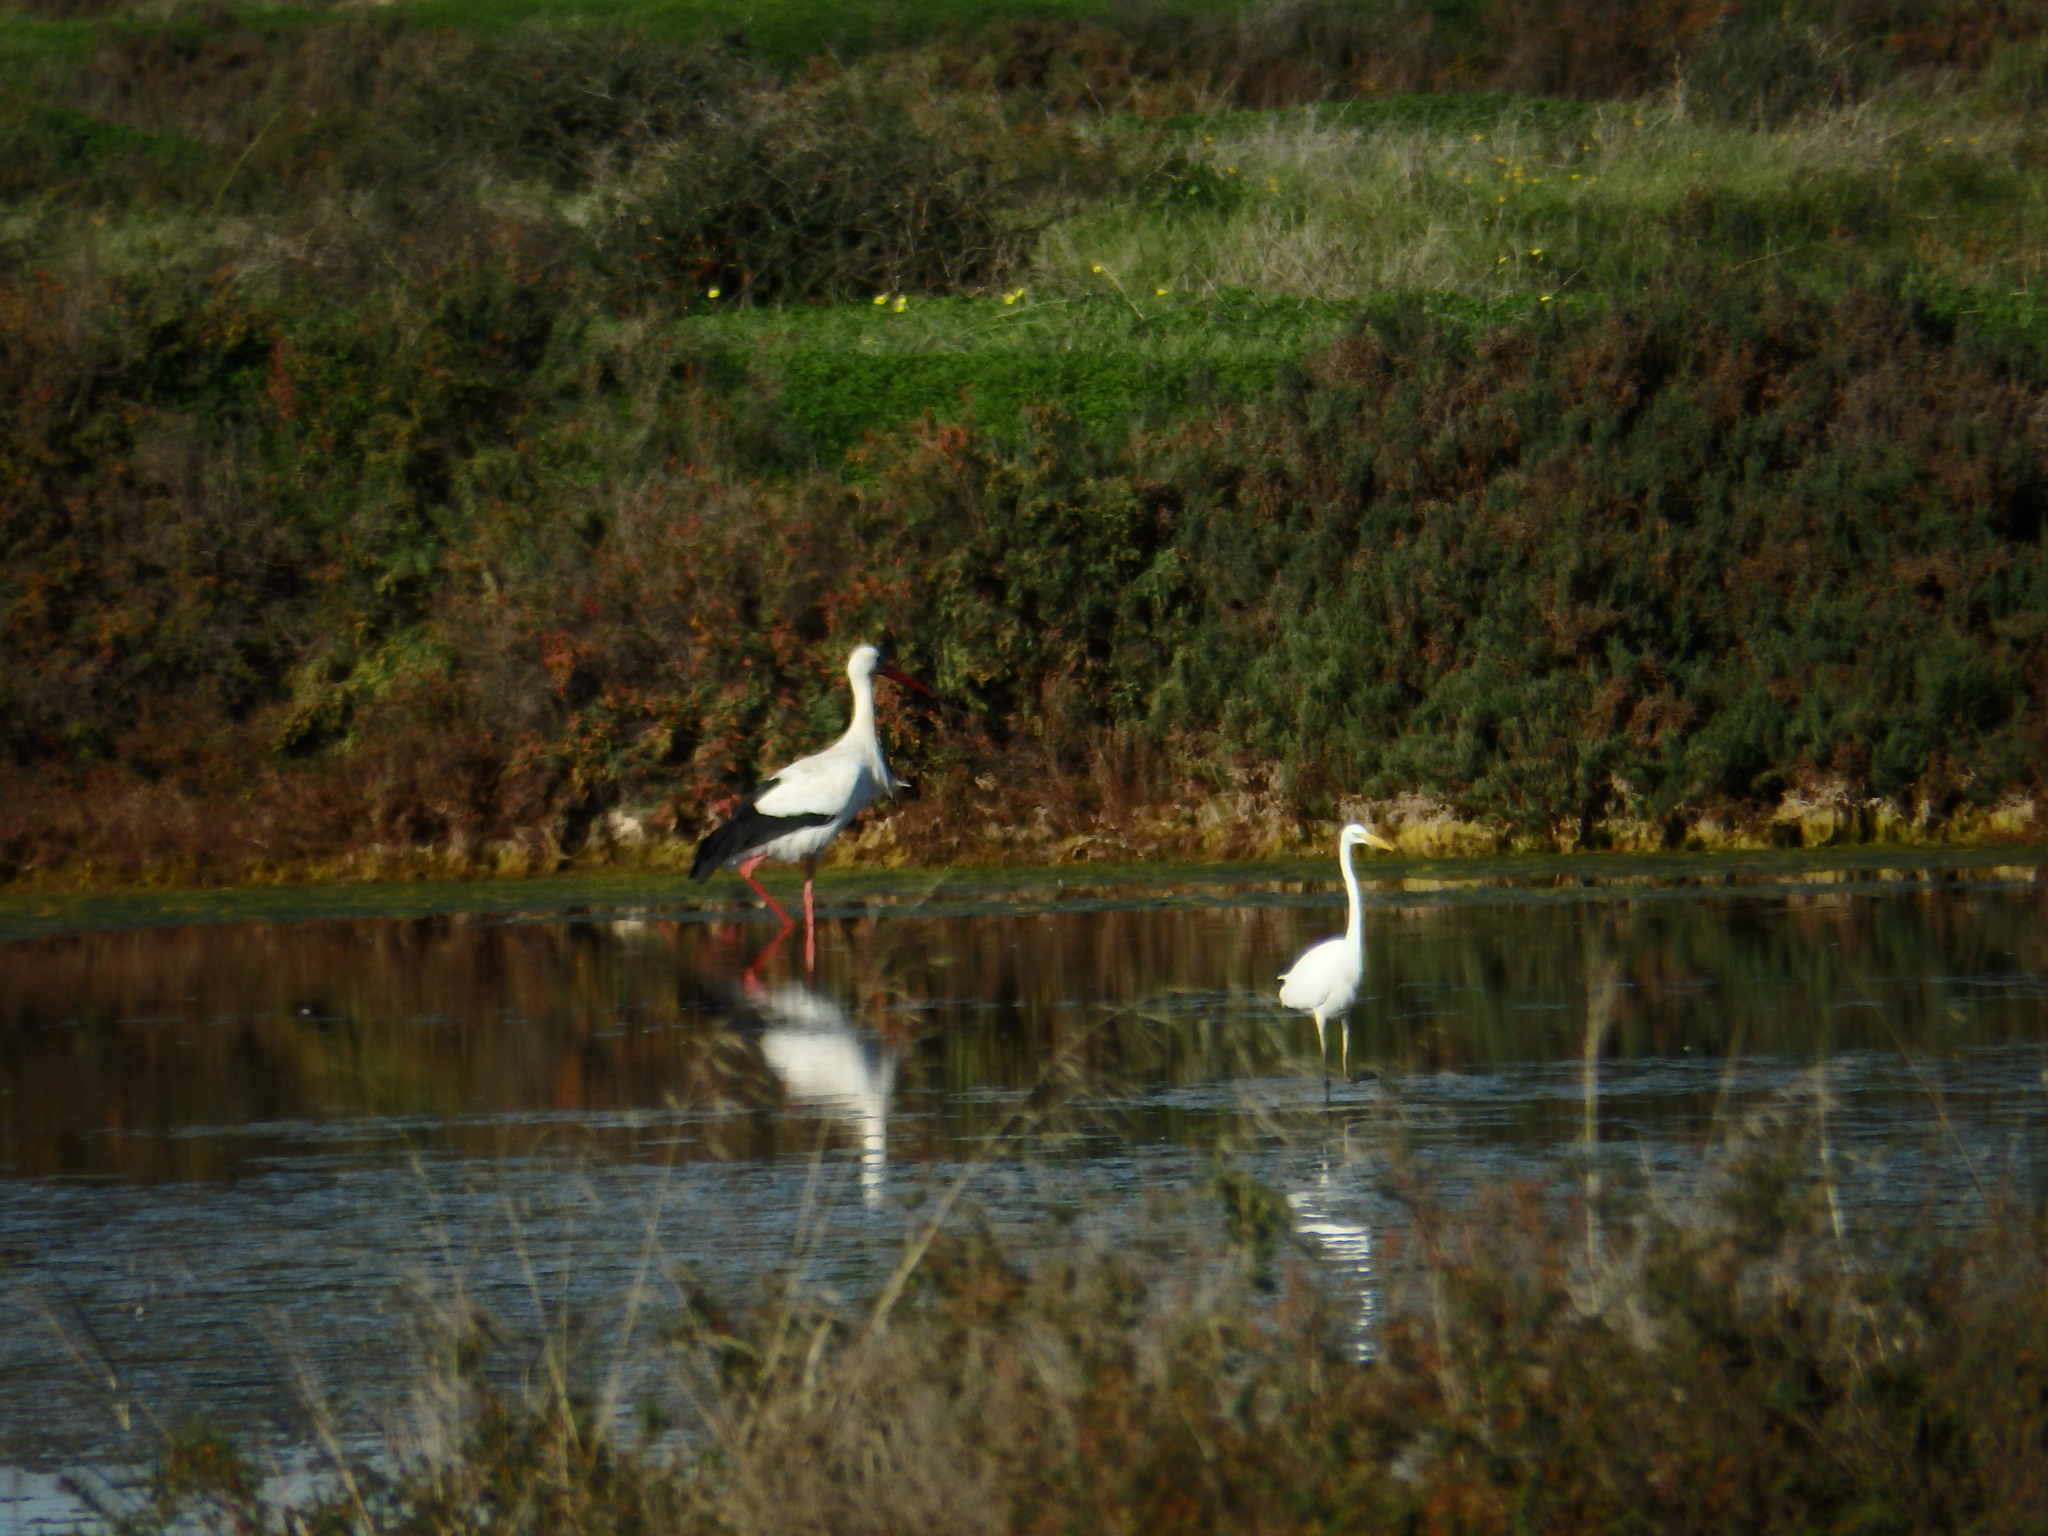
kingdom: Animalia
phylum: Chordata
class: Aves
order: Pelecaniformes
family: Ardeidae
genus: Ardea
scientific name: Ardea alba
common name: Great egret
